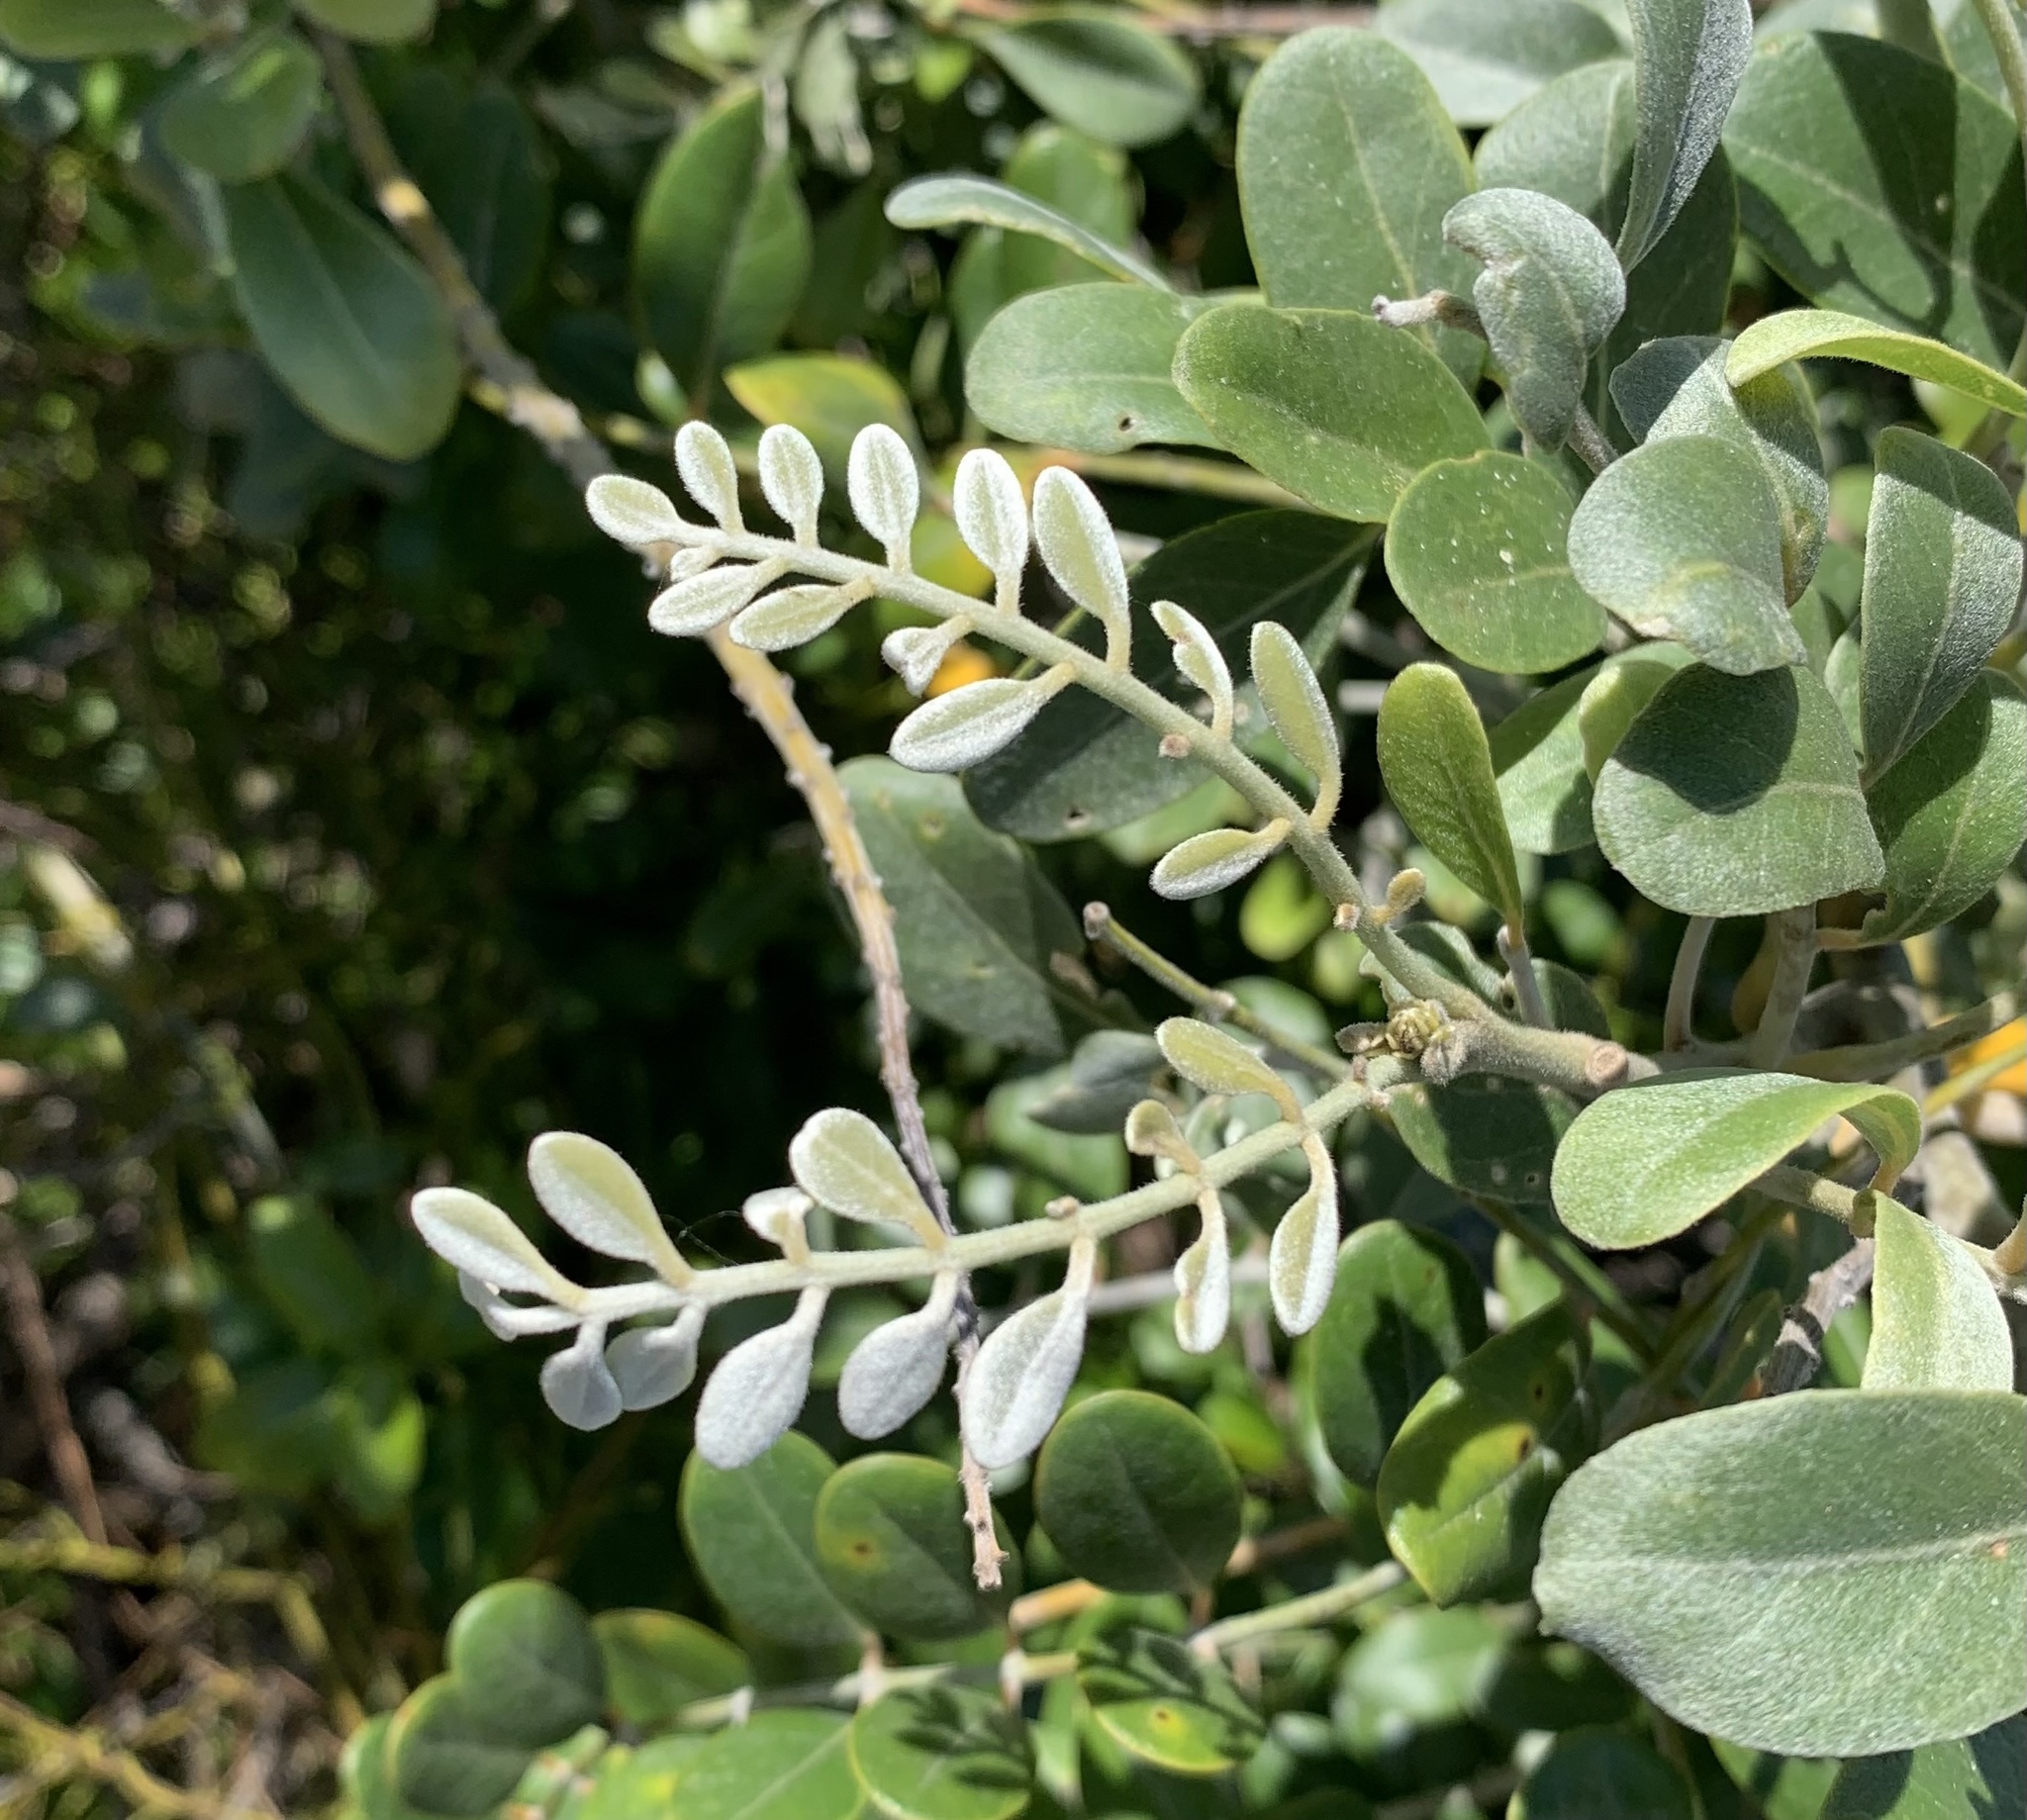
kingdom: Plantae
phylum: Tracheophyta
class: Magnoliopsida
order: Fabales
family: Fabaceae
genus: Sophora
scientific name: Sophora tomentosa
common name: Yellow necklacepod
